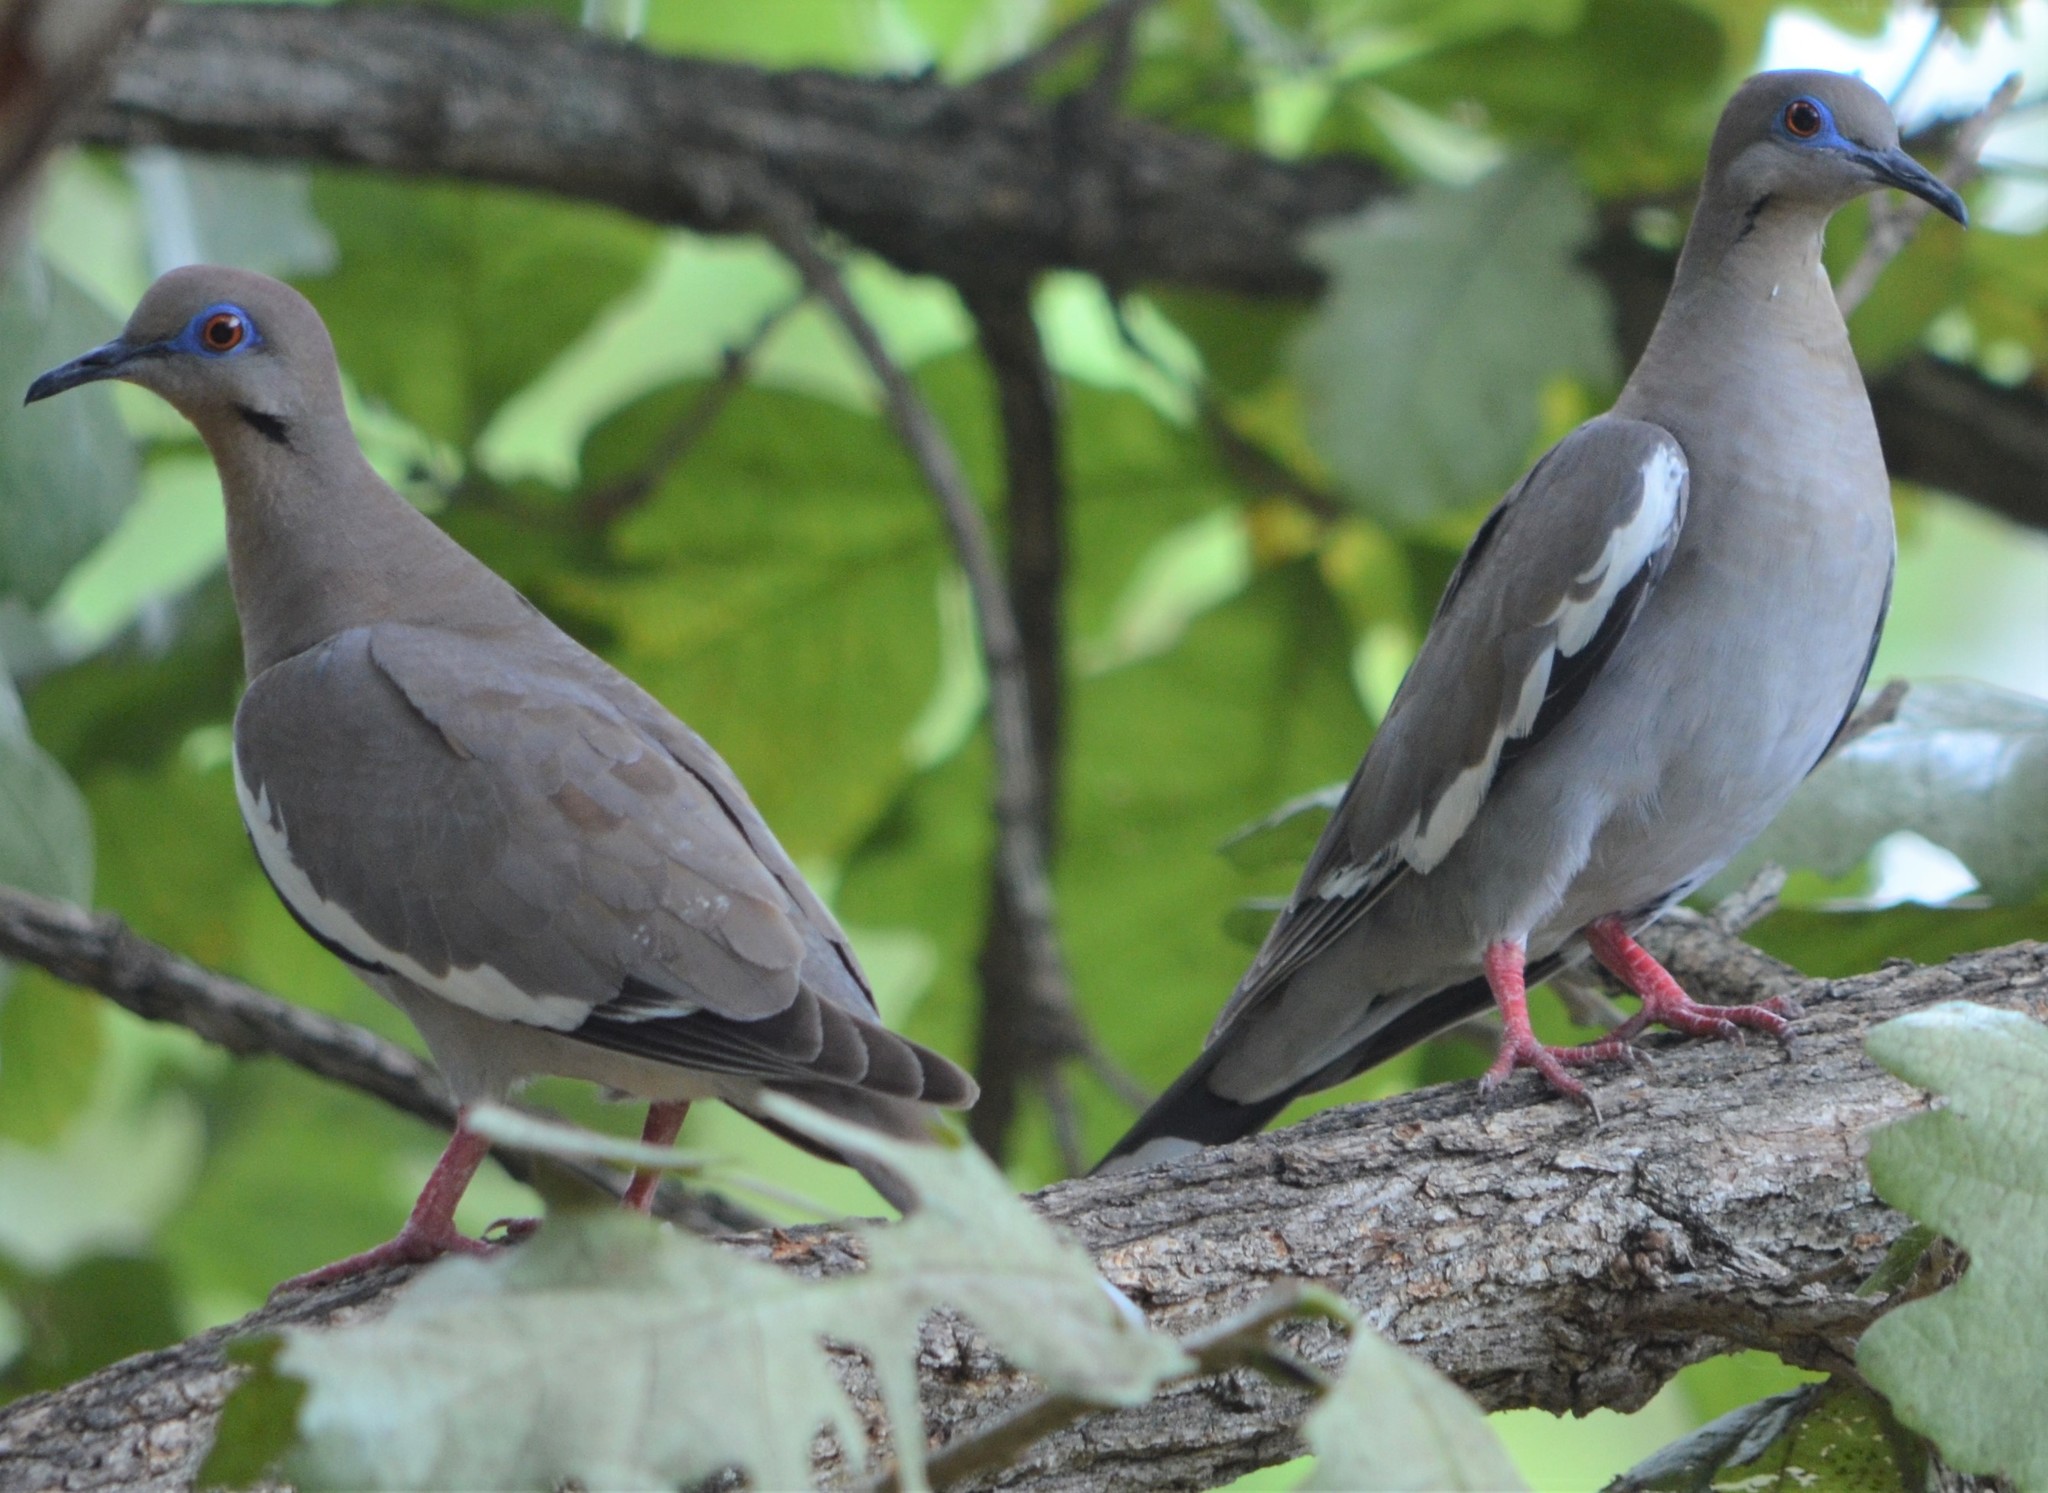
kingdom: Animalia
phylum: Chordata
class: Aves
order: Columbiformes
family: Columbidae
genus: Zenaida
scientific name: Zenaida asiatica
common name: White-winged dove
